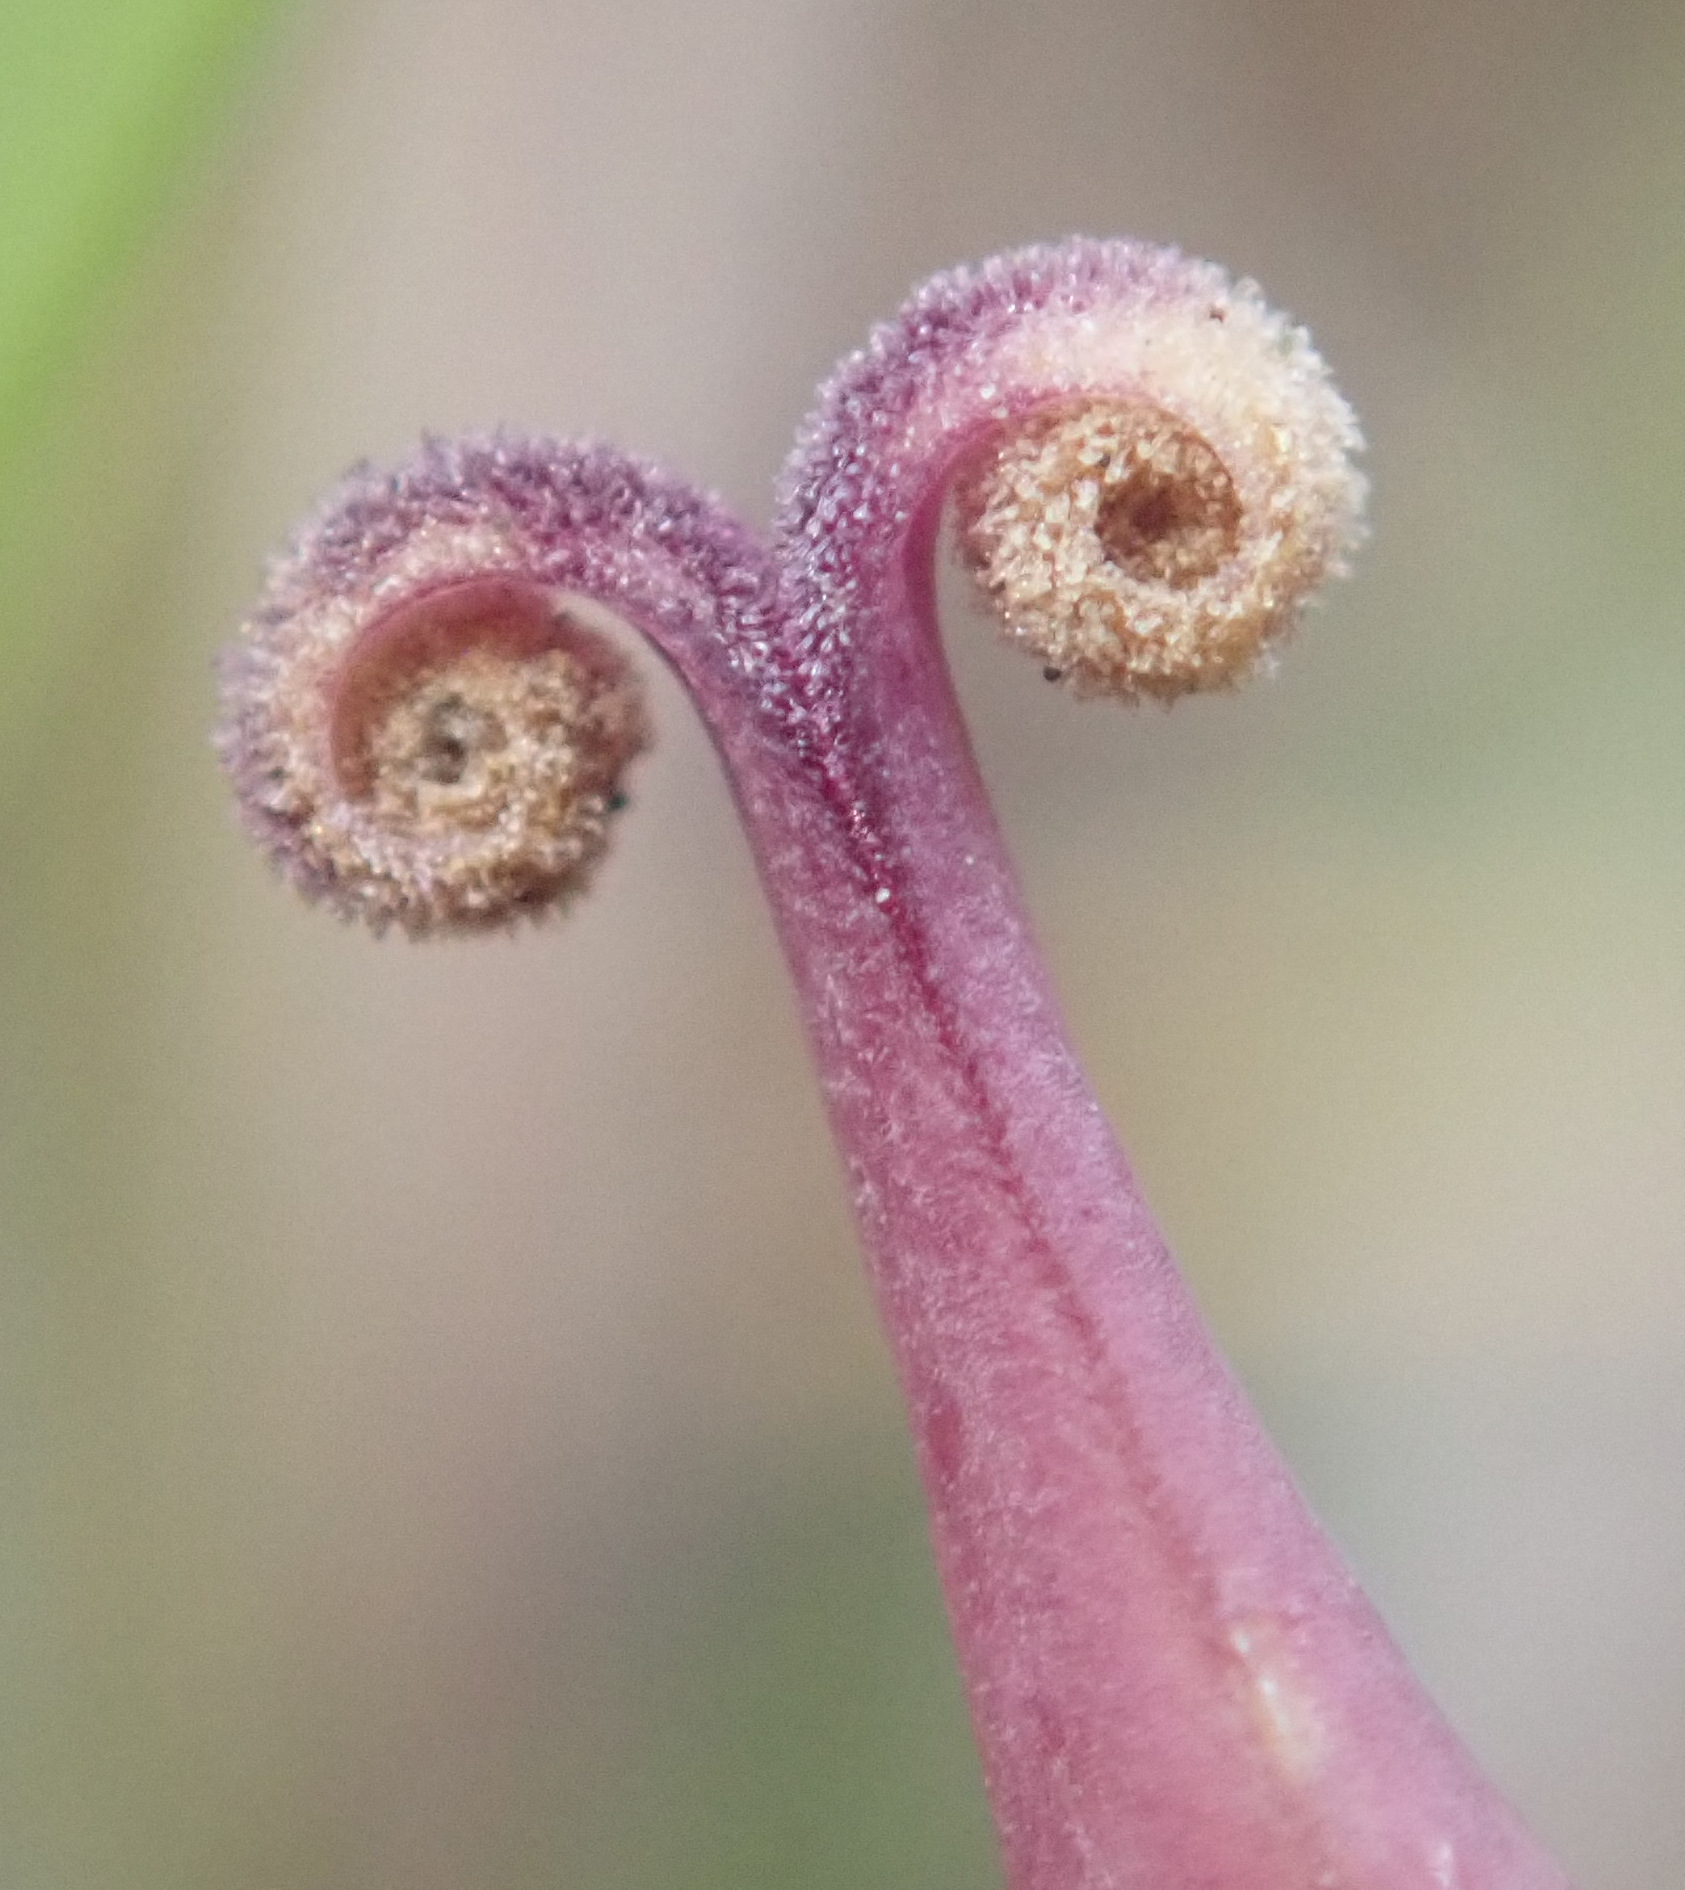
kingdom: Plantae
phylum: Tracheophyta
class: Magnoliopsida
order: Gentianales
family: Gentianaceae
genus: Gentiana
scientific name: Gentiana pneumonanthe
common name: Marsh gentian
